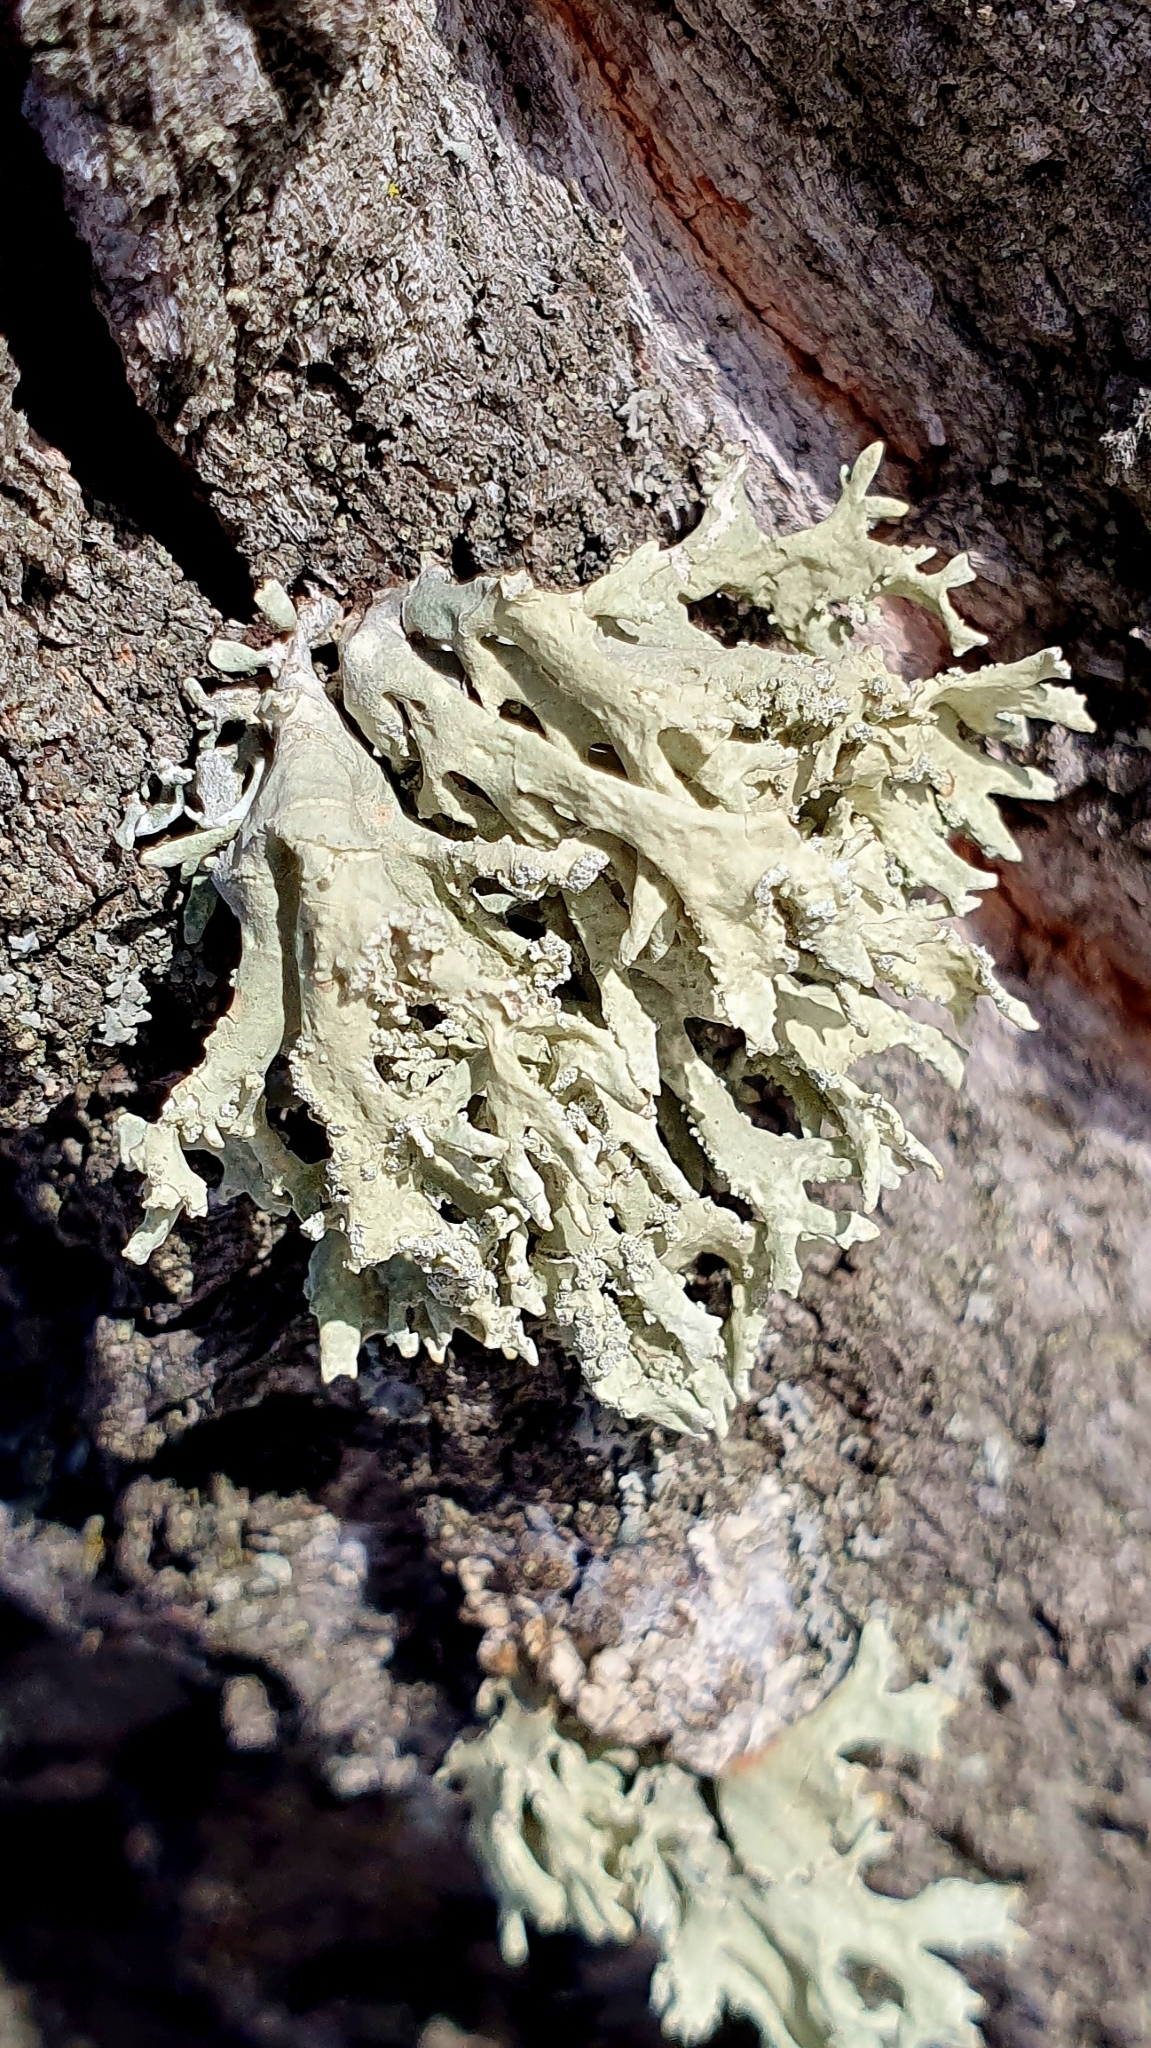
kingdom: Fungi
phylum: Ascomycota
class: Lecanoromycetes
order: Lecanorales
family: Parmeliaceae
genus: Evernia
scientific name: Evernia prunastri
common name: Oak moss
